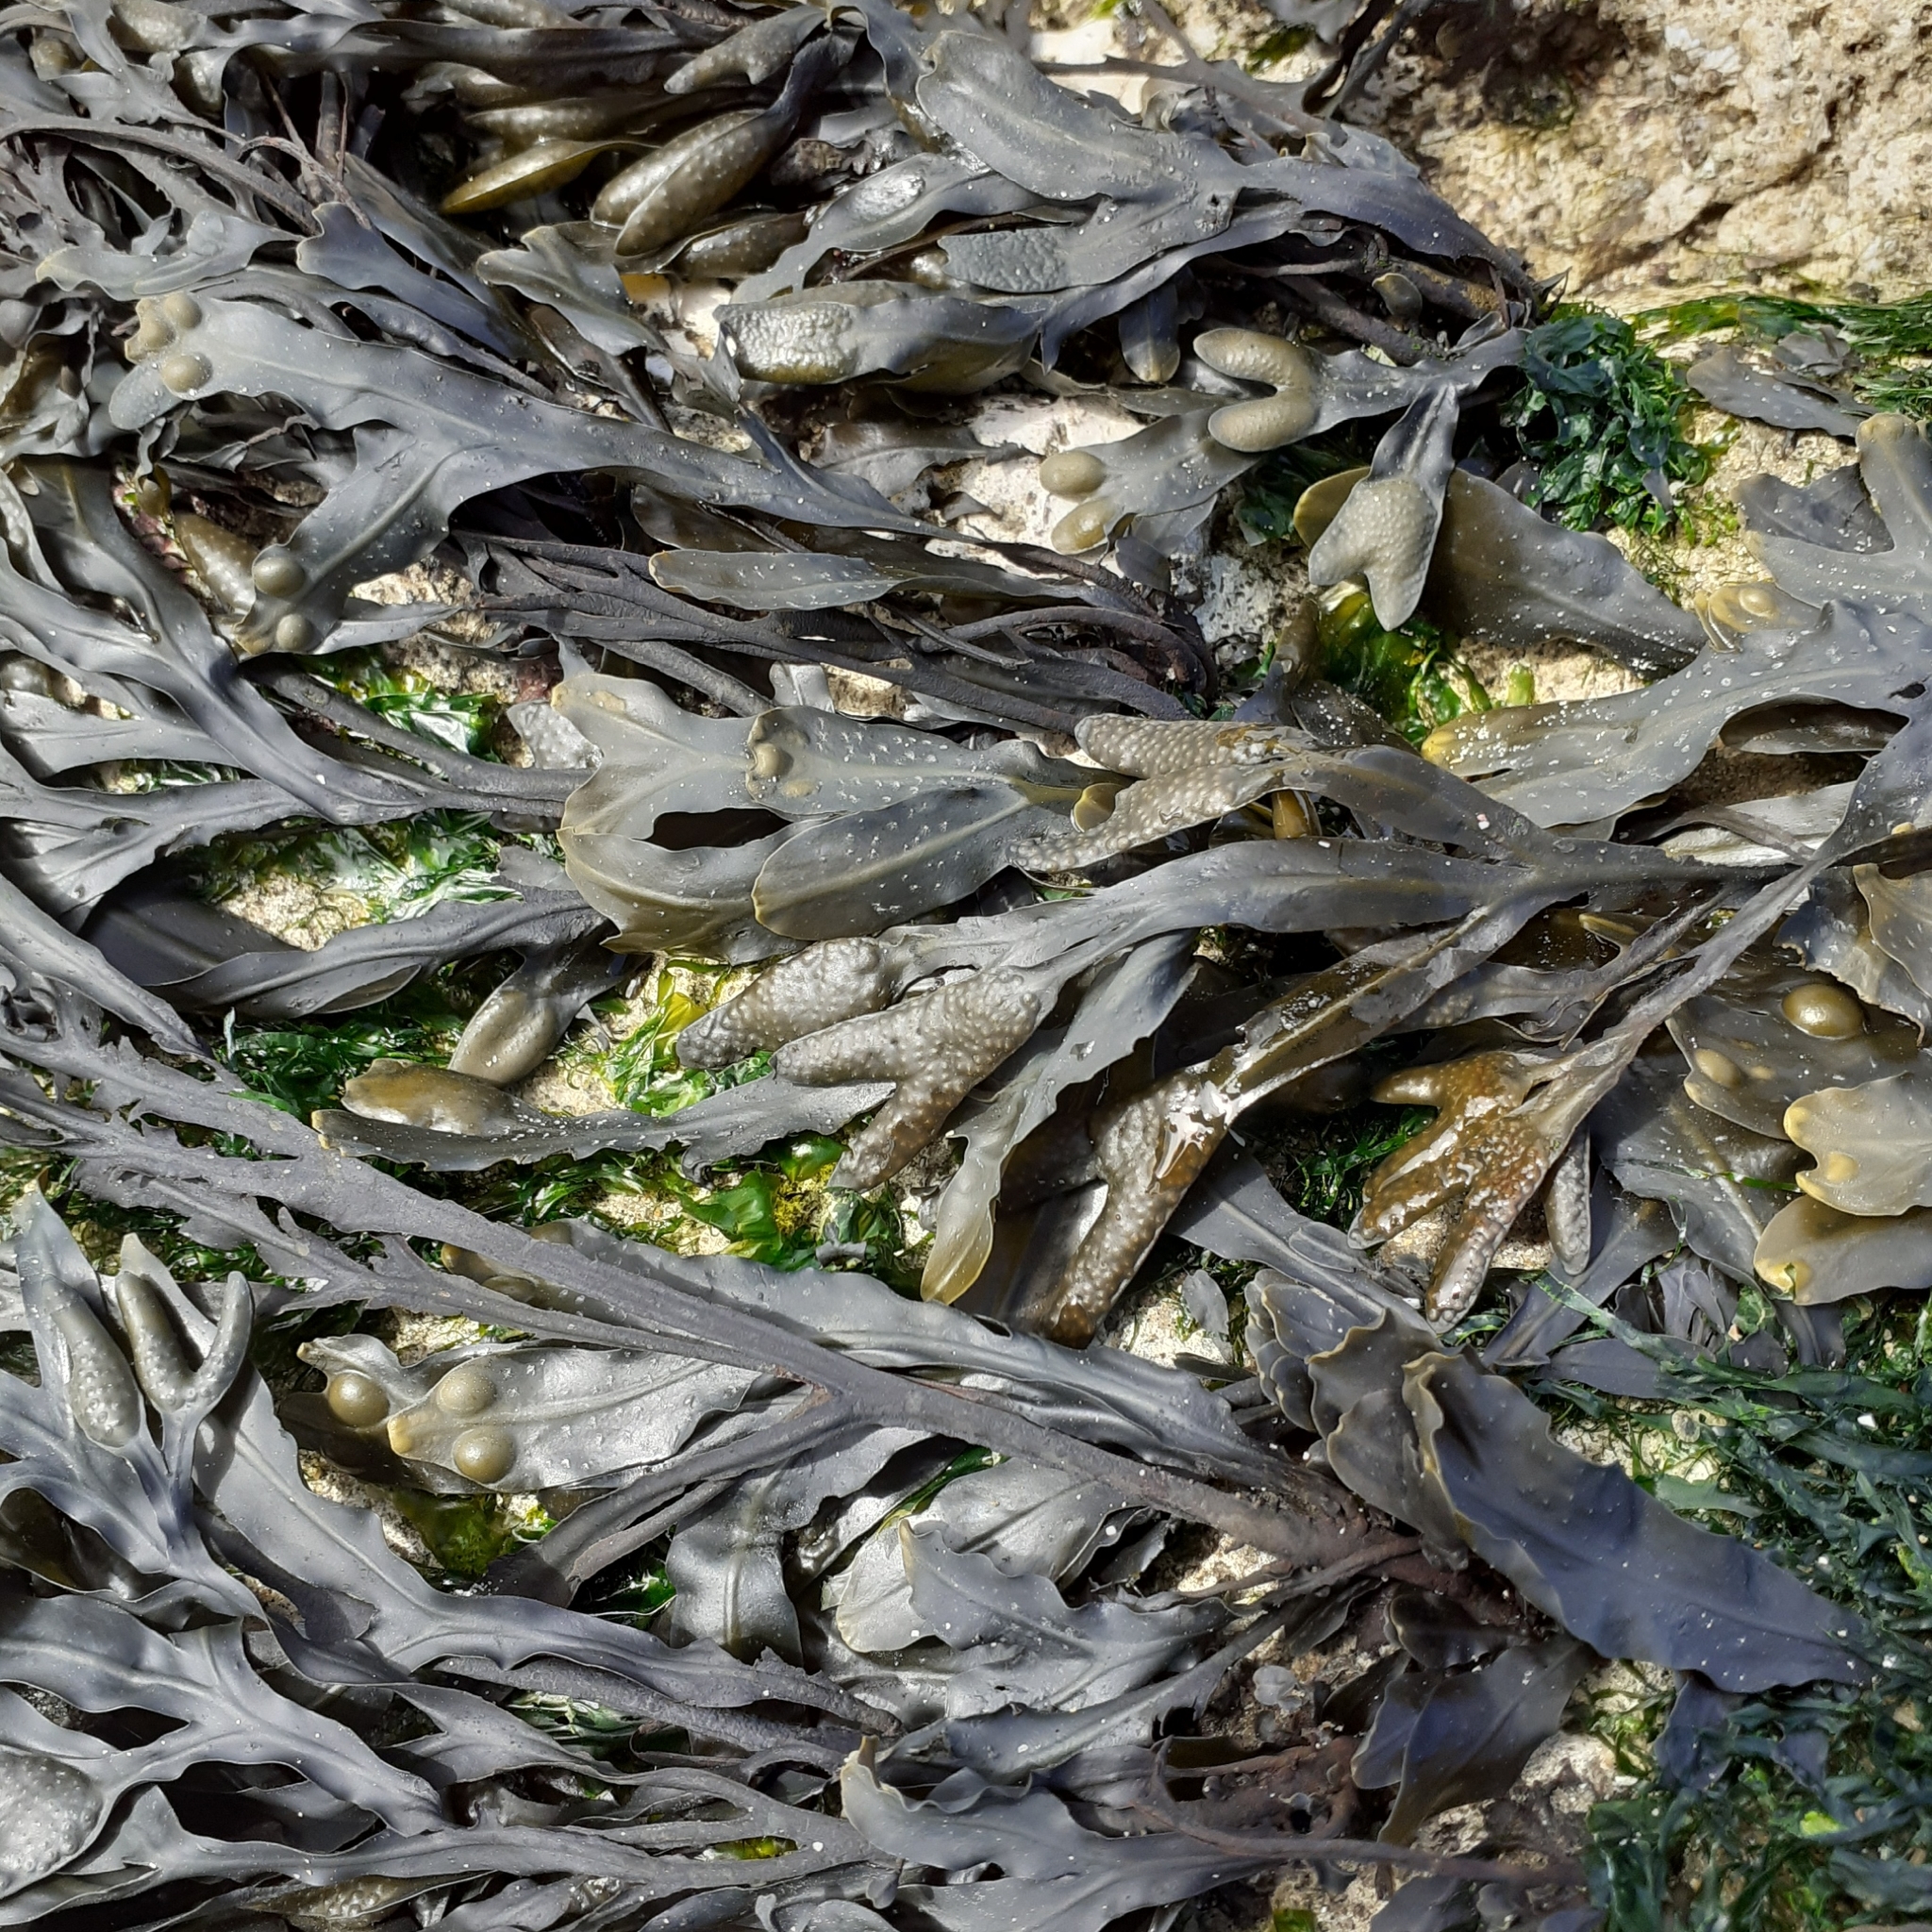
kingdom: Chromista
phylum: Ochrophyta
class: Phaeophyceae
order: Fucales
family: Fucaceae
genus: Fucus
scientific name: Fucus vesiculosus
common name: Bladder wrack
